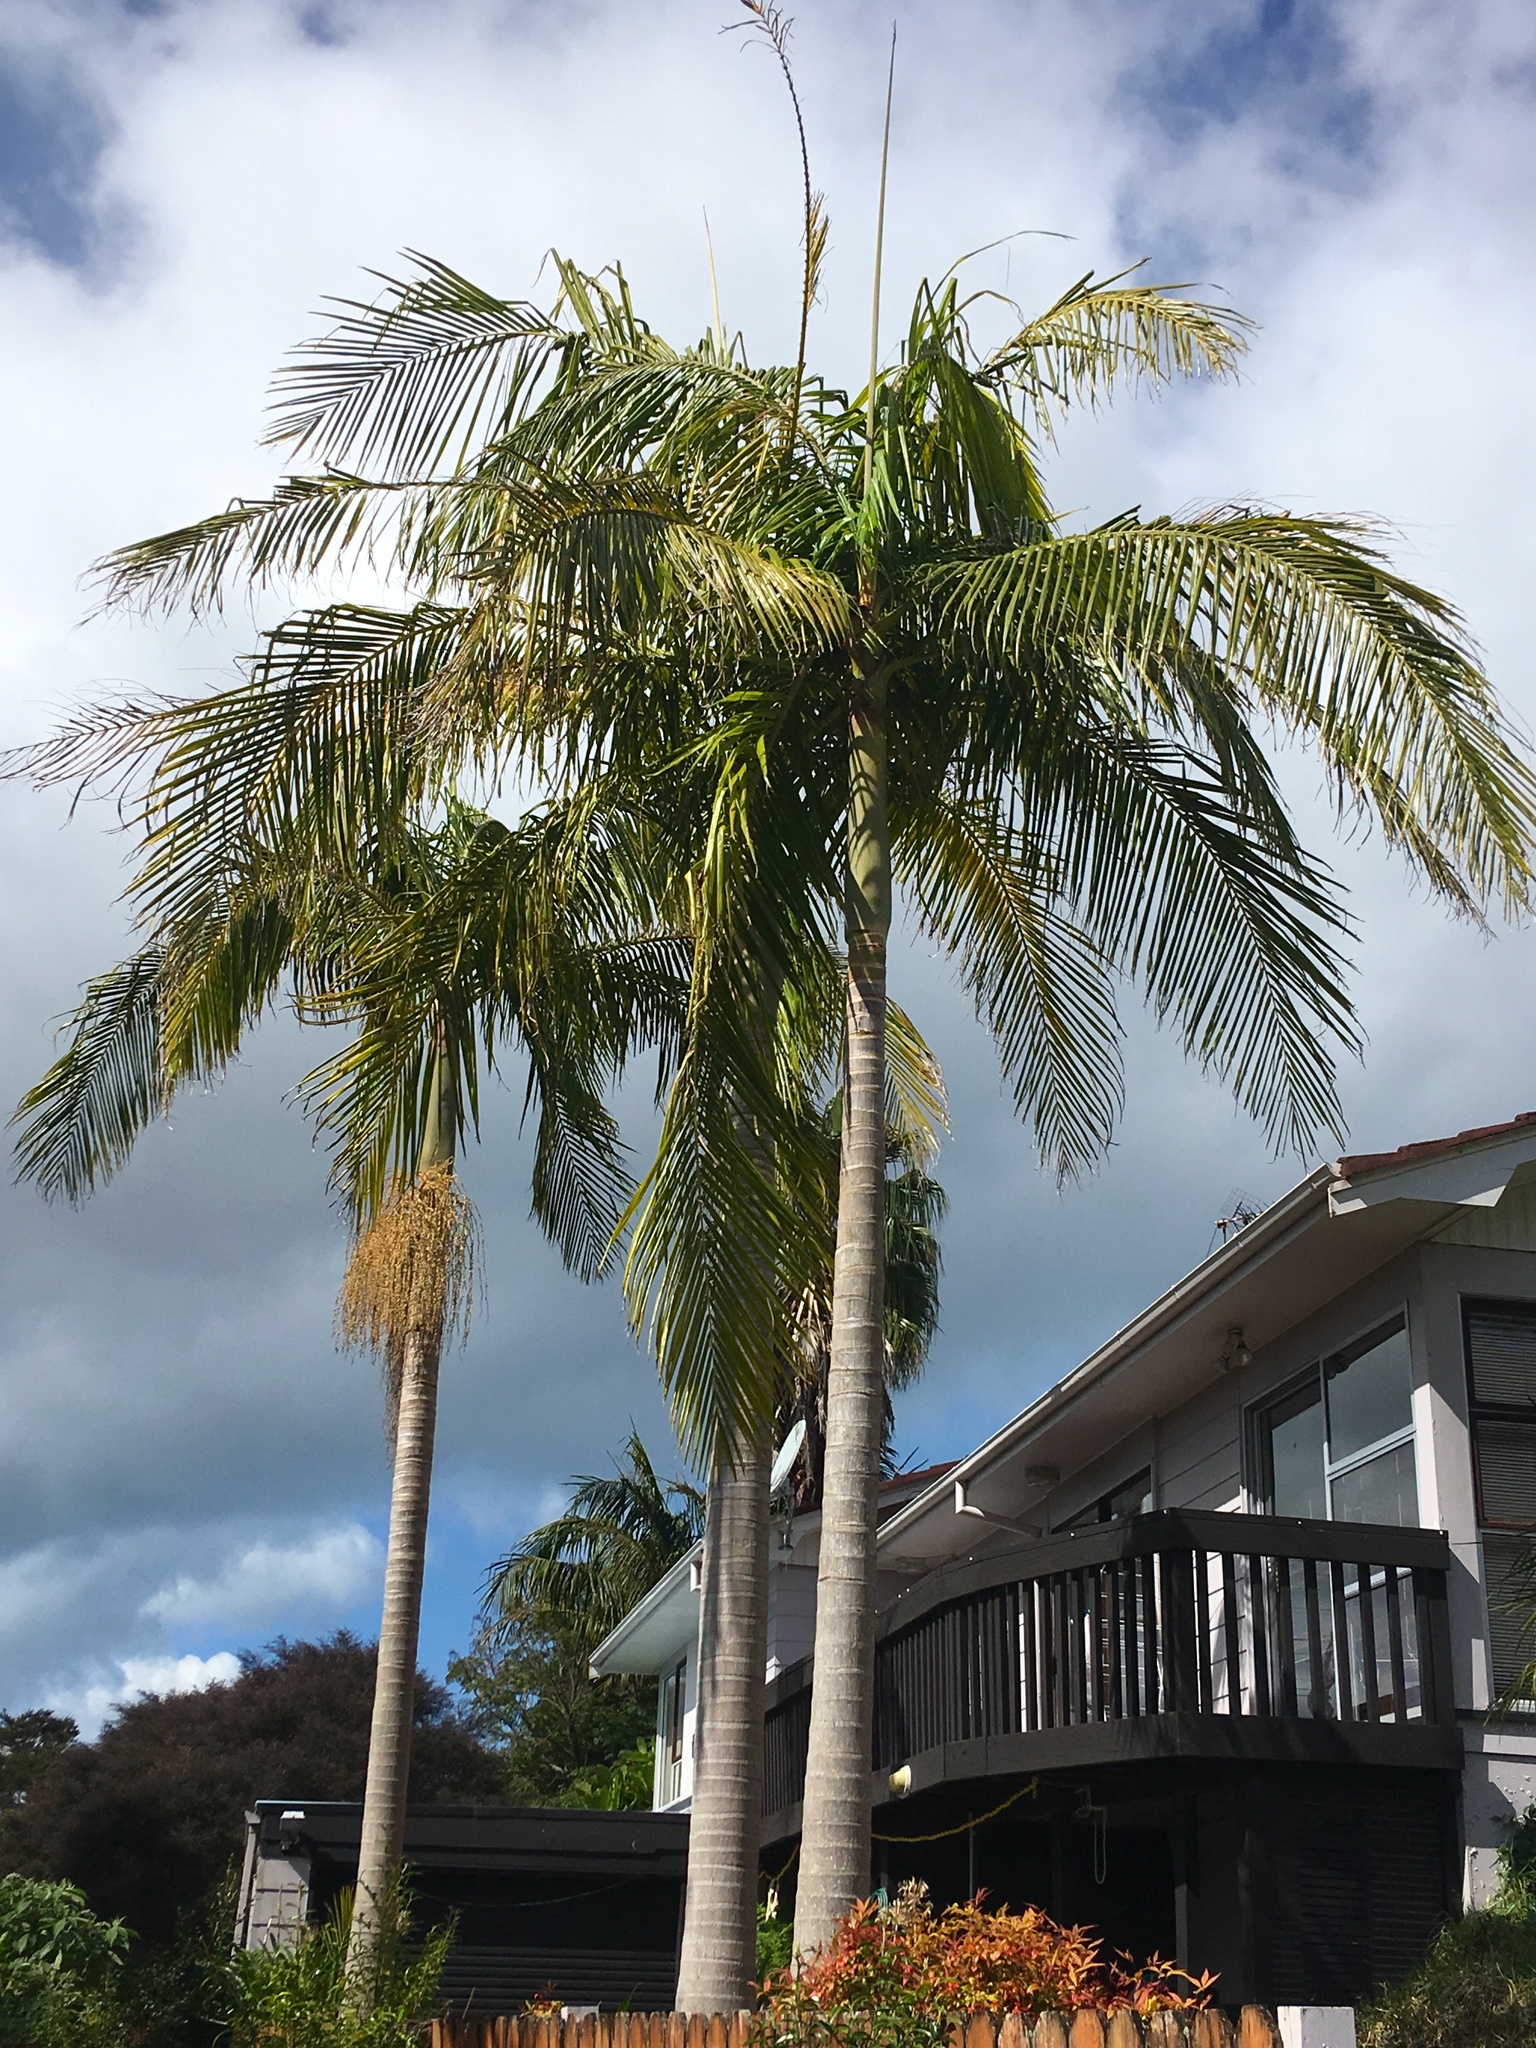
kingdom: Plantae
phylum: Tracheophyta
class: Liliopsida
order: Arecales
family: Arecaceae
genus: Archontophoenix
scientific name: Archontophoenix cunninghamiana
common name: Piccabeen bangalow palm
